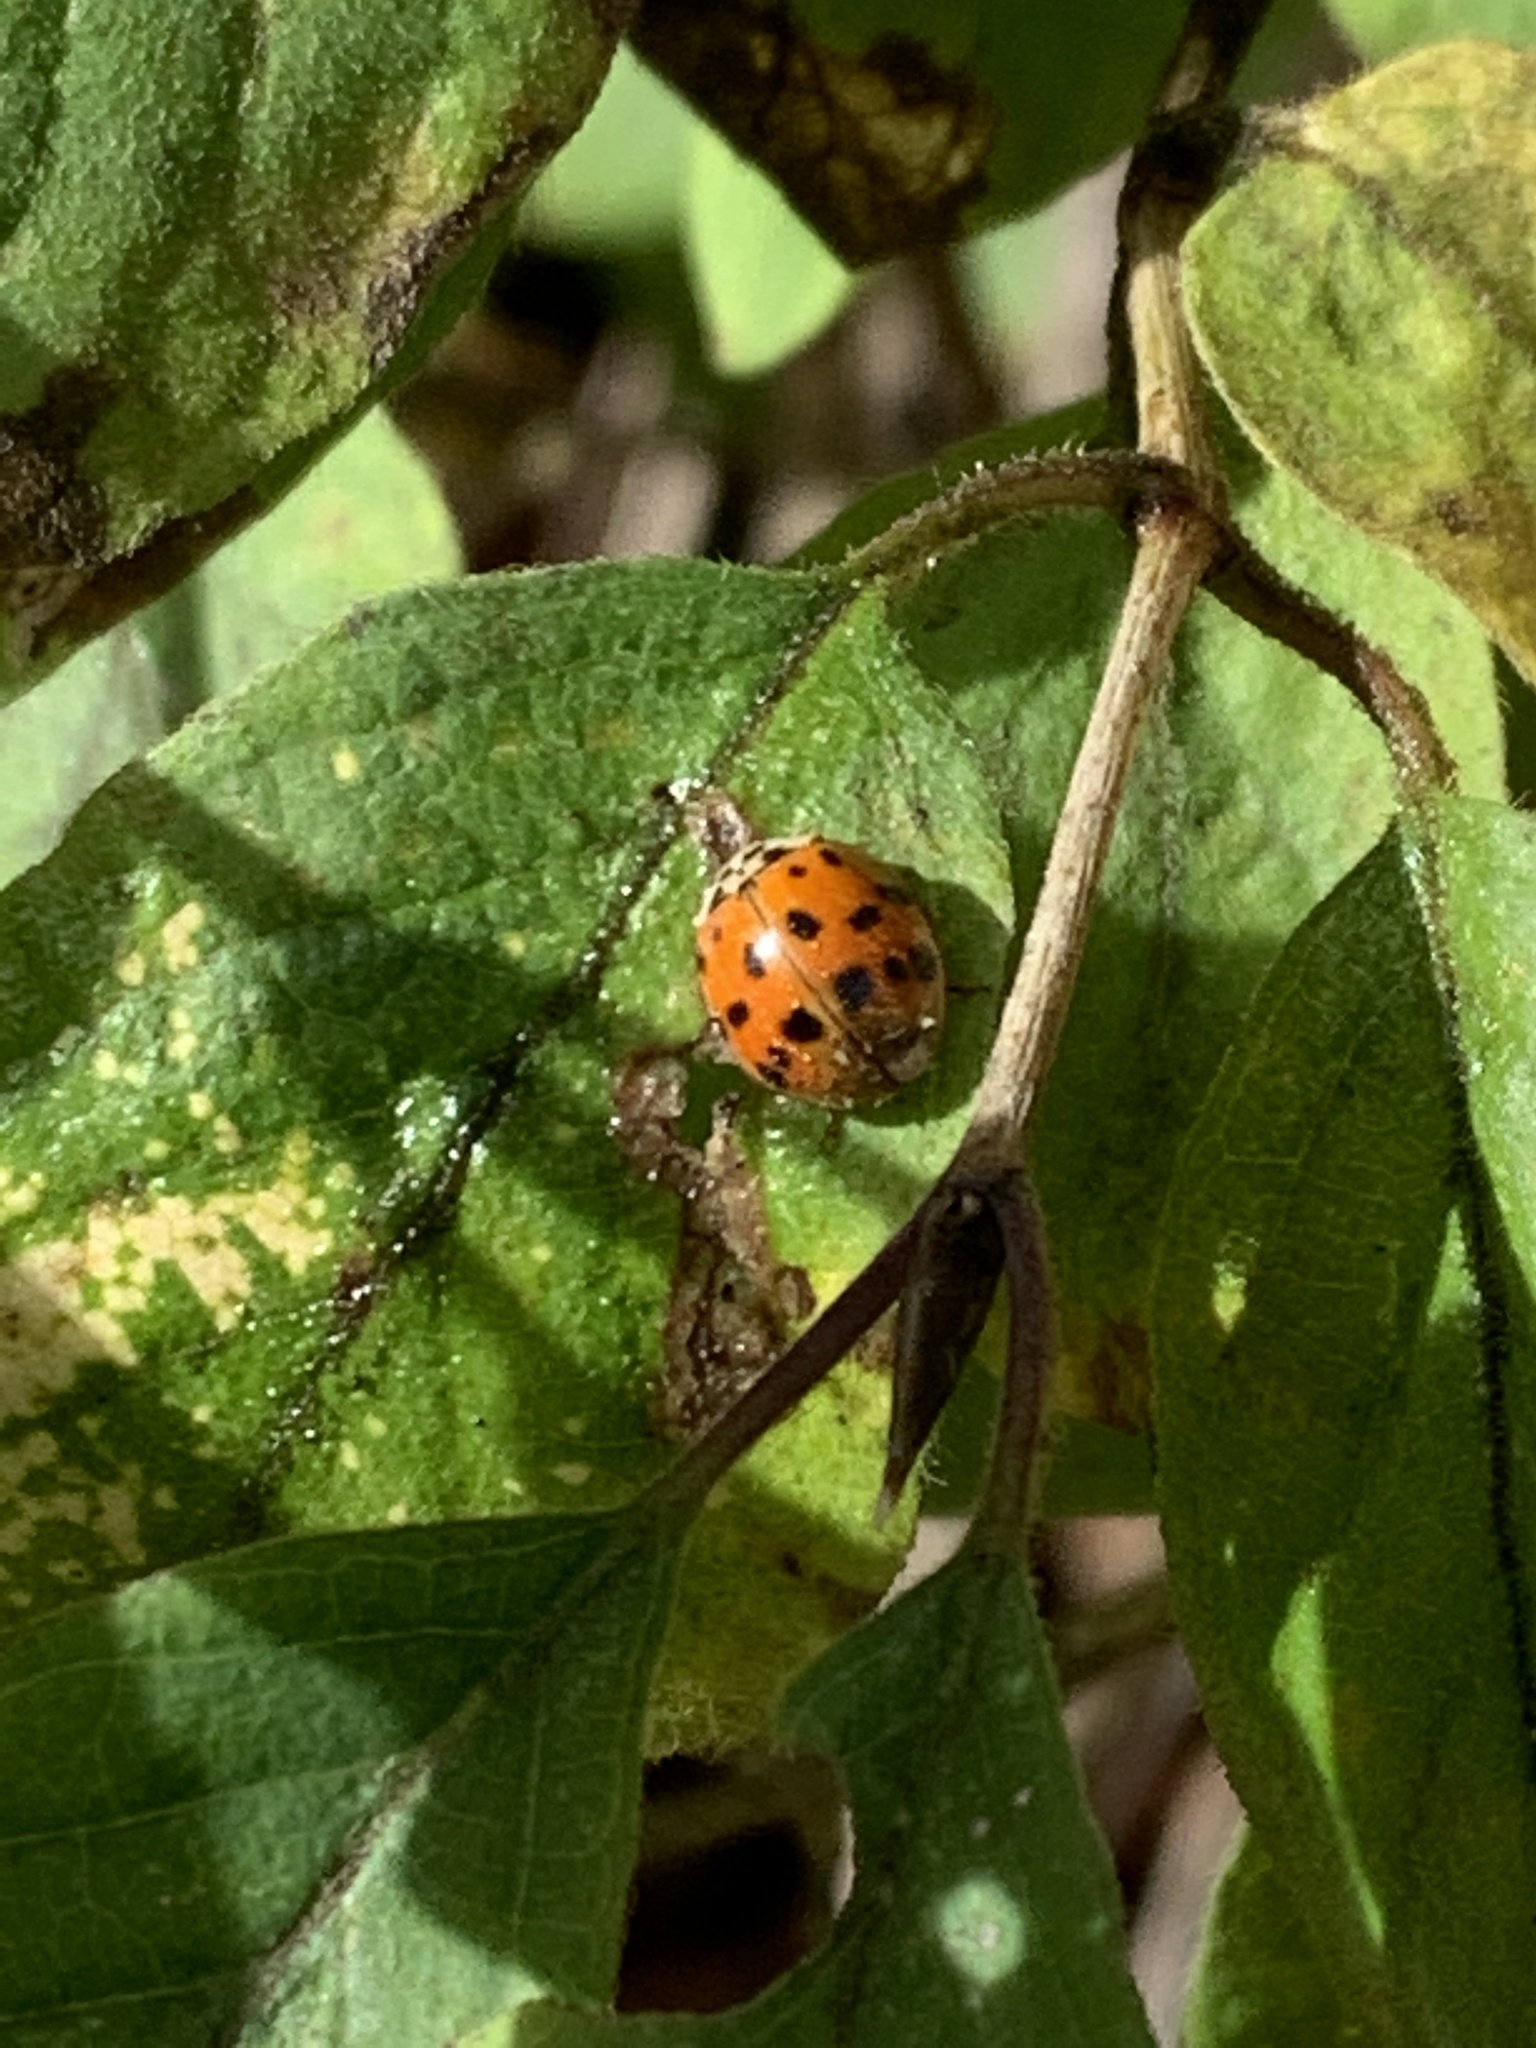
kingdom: Animalia
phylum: Arthropoda
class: Insecta
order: Coleoptera
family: Coccinellidae
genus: Harmonia
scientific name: Harmonia axyridis
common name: Harlequin ladybird
